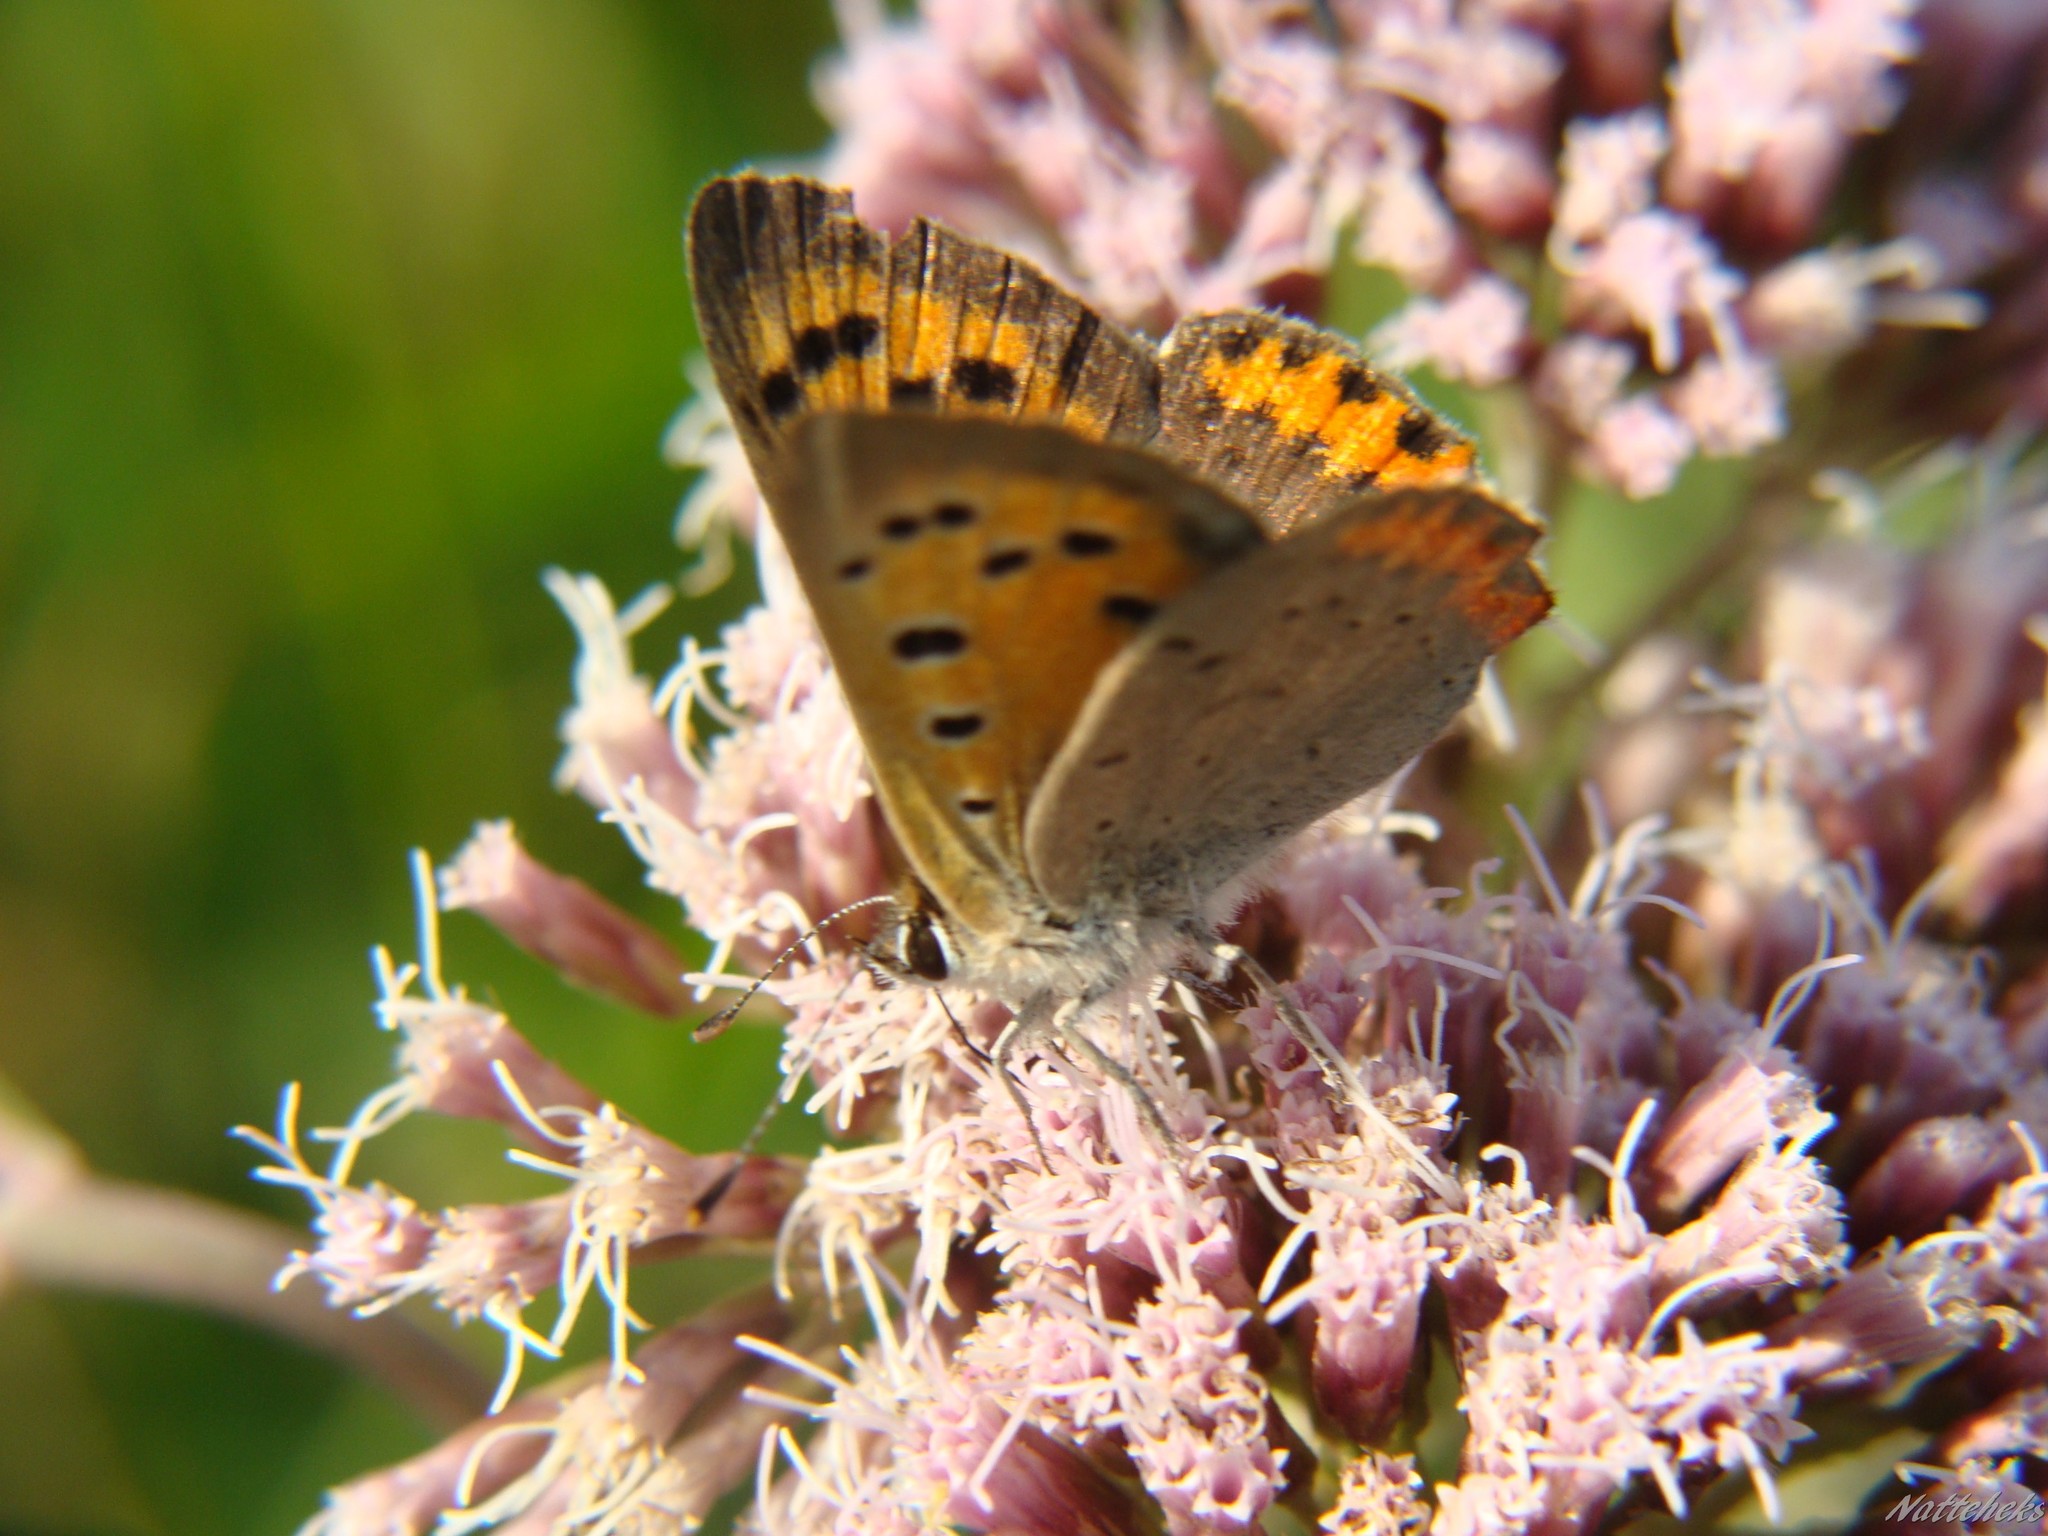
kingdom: Animalia
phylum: Arthropoda
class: Insecta
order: Lepidoptera
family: Lycaenidae
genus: Lycaena
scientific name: Lycaena phlaeas
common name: Small copper
